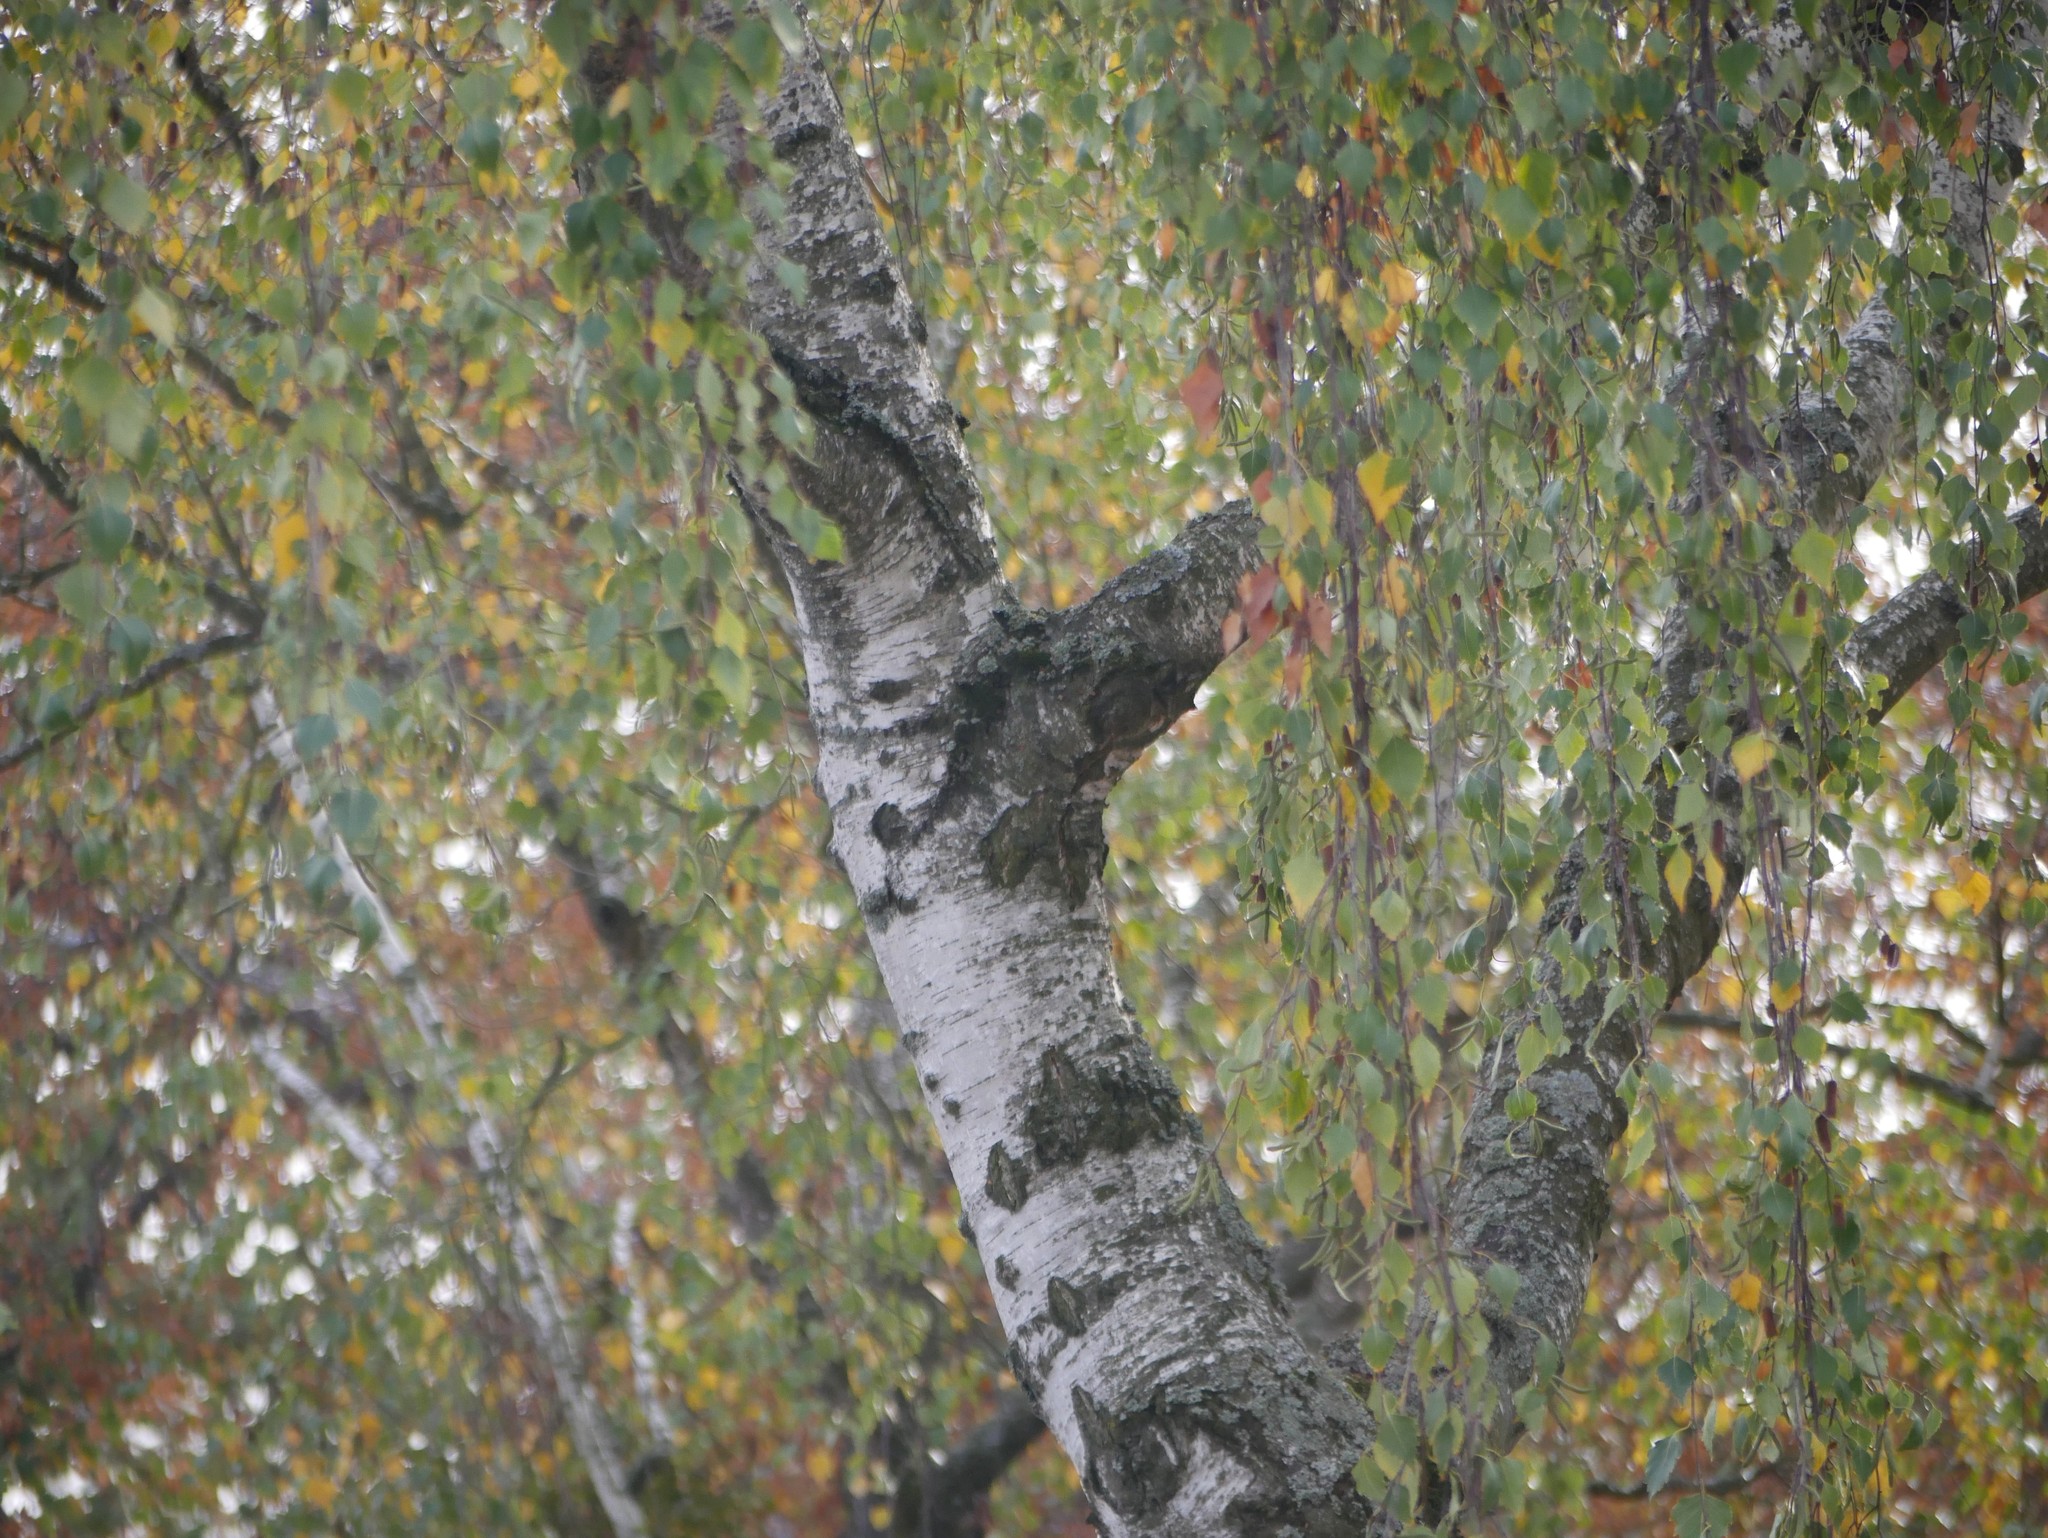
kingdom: Plantae
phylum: Tracheophyta
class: Magnoliopsida
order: Fagales
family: Betulaceae
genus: Betula
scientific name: Betula pendula
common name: Silver birch
